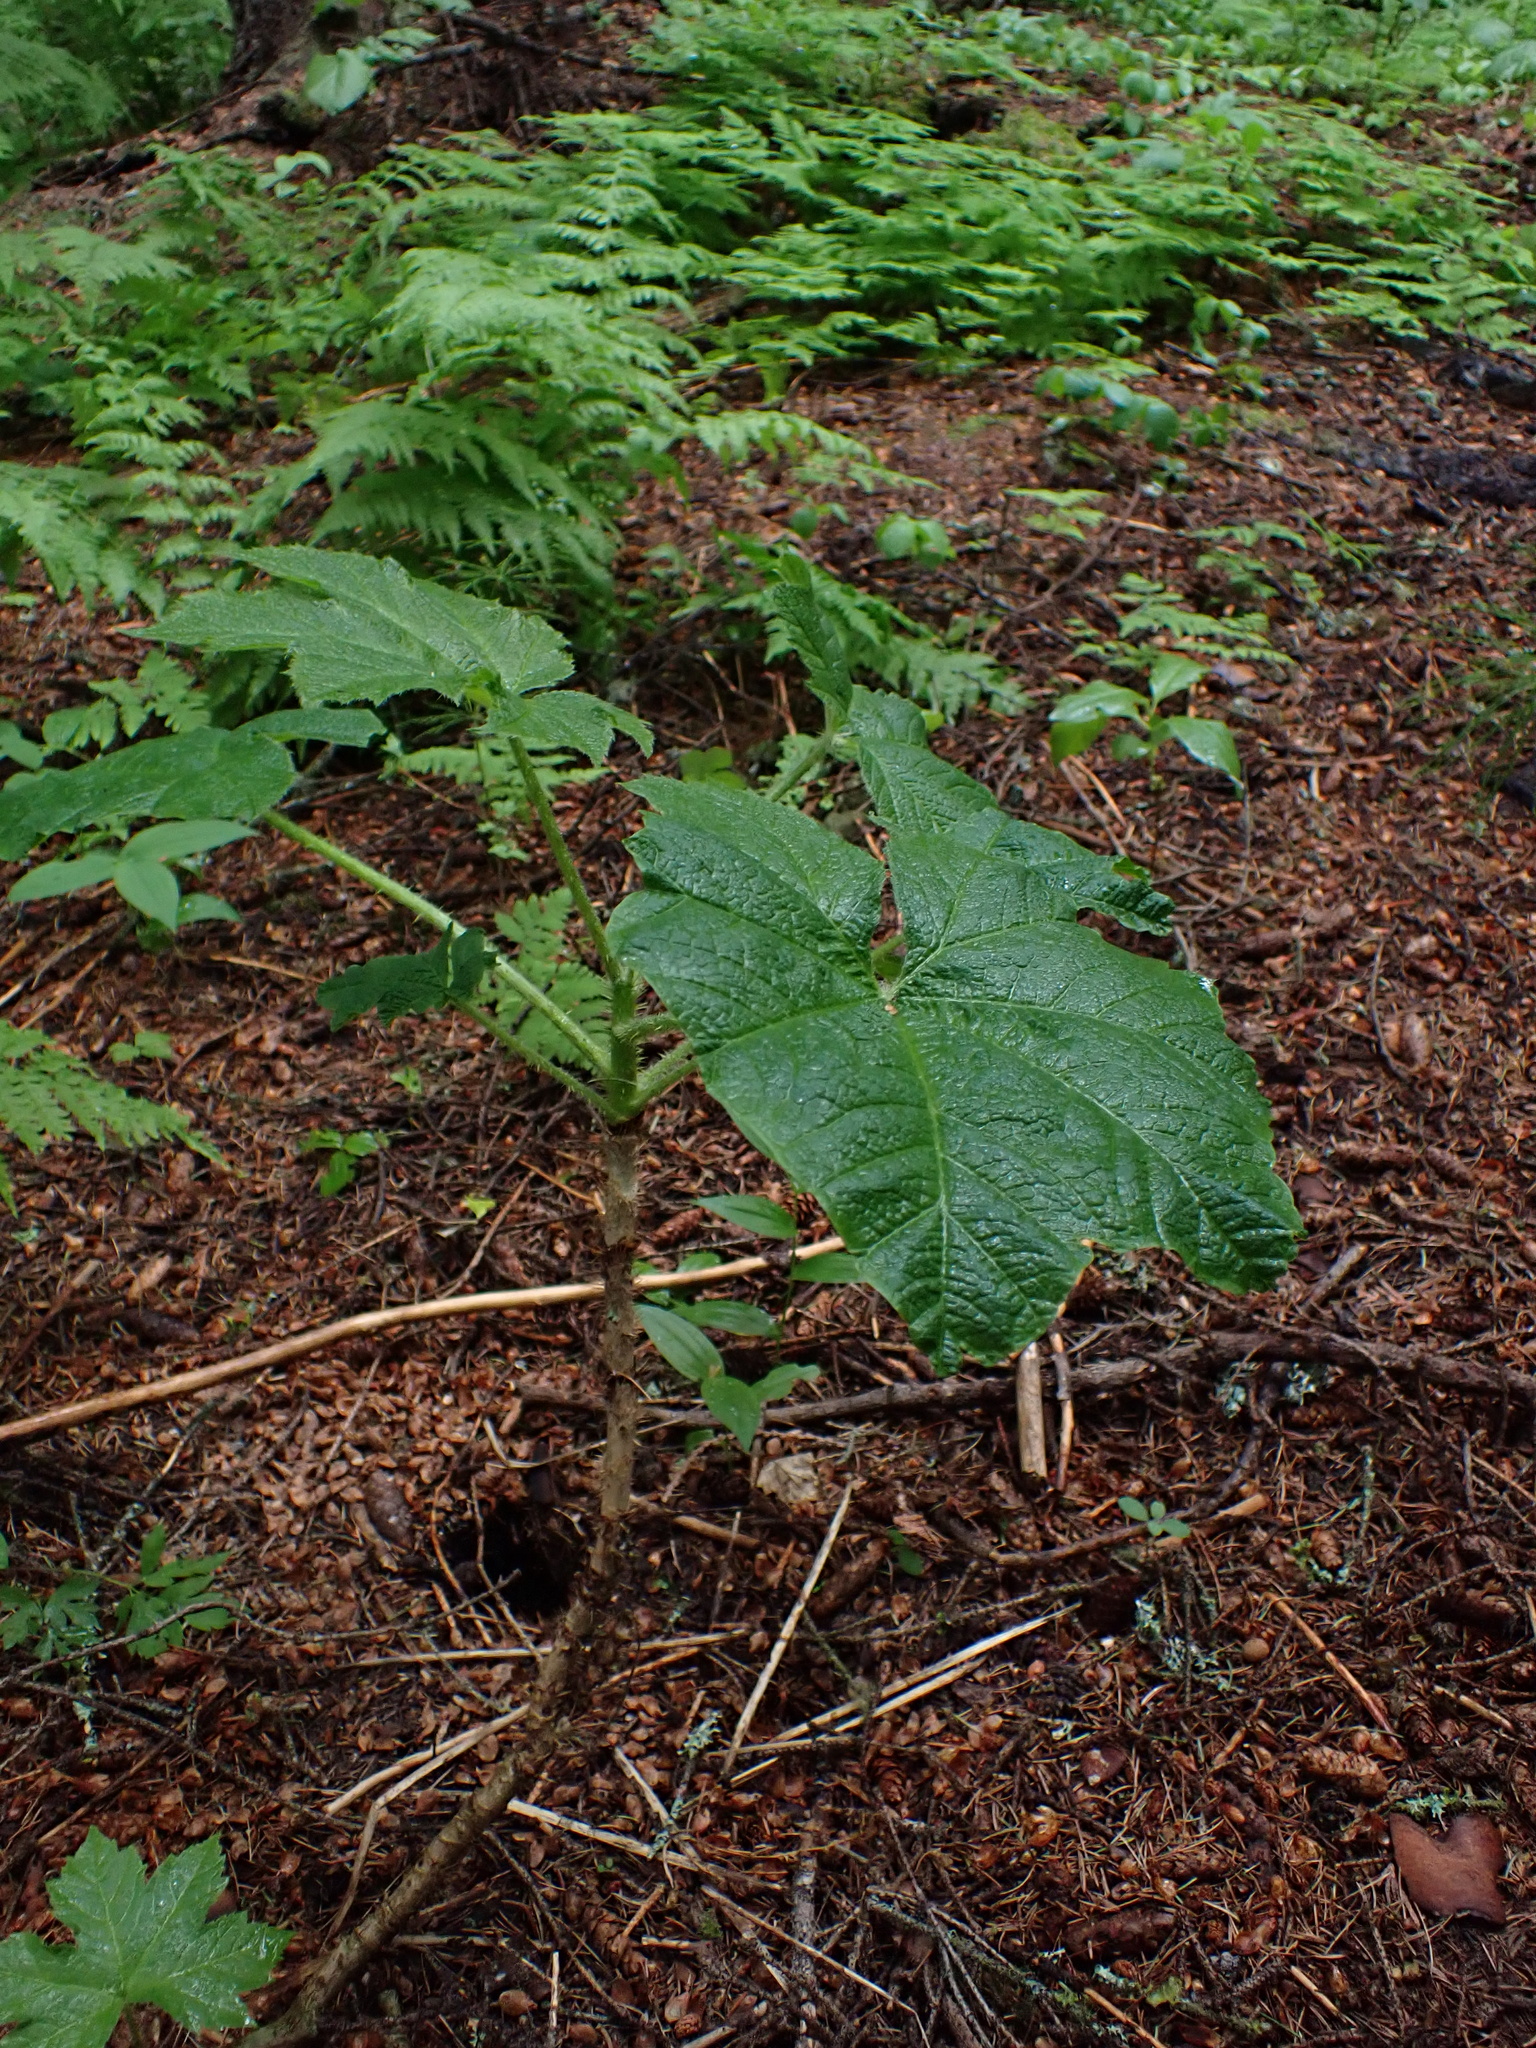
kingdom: Plantae
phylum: Tracheophyta
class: Magnoliopsida
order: Apiales
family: Araliaceae
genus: Oplopanax
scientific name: Oplopanax horridus
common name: Devil's walking-stick
